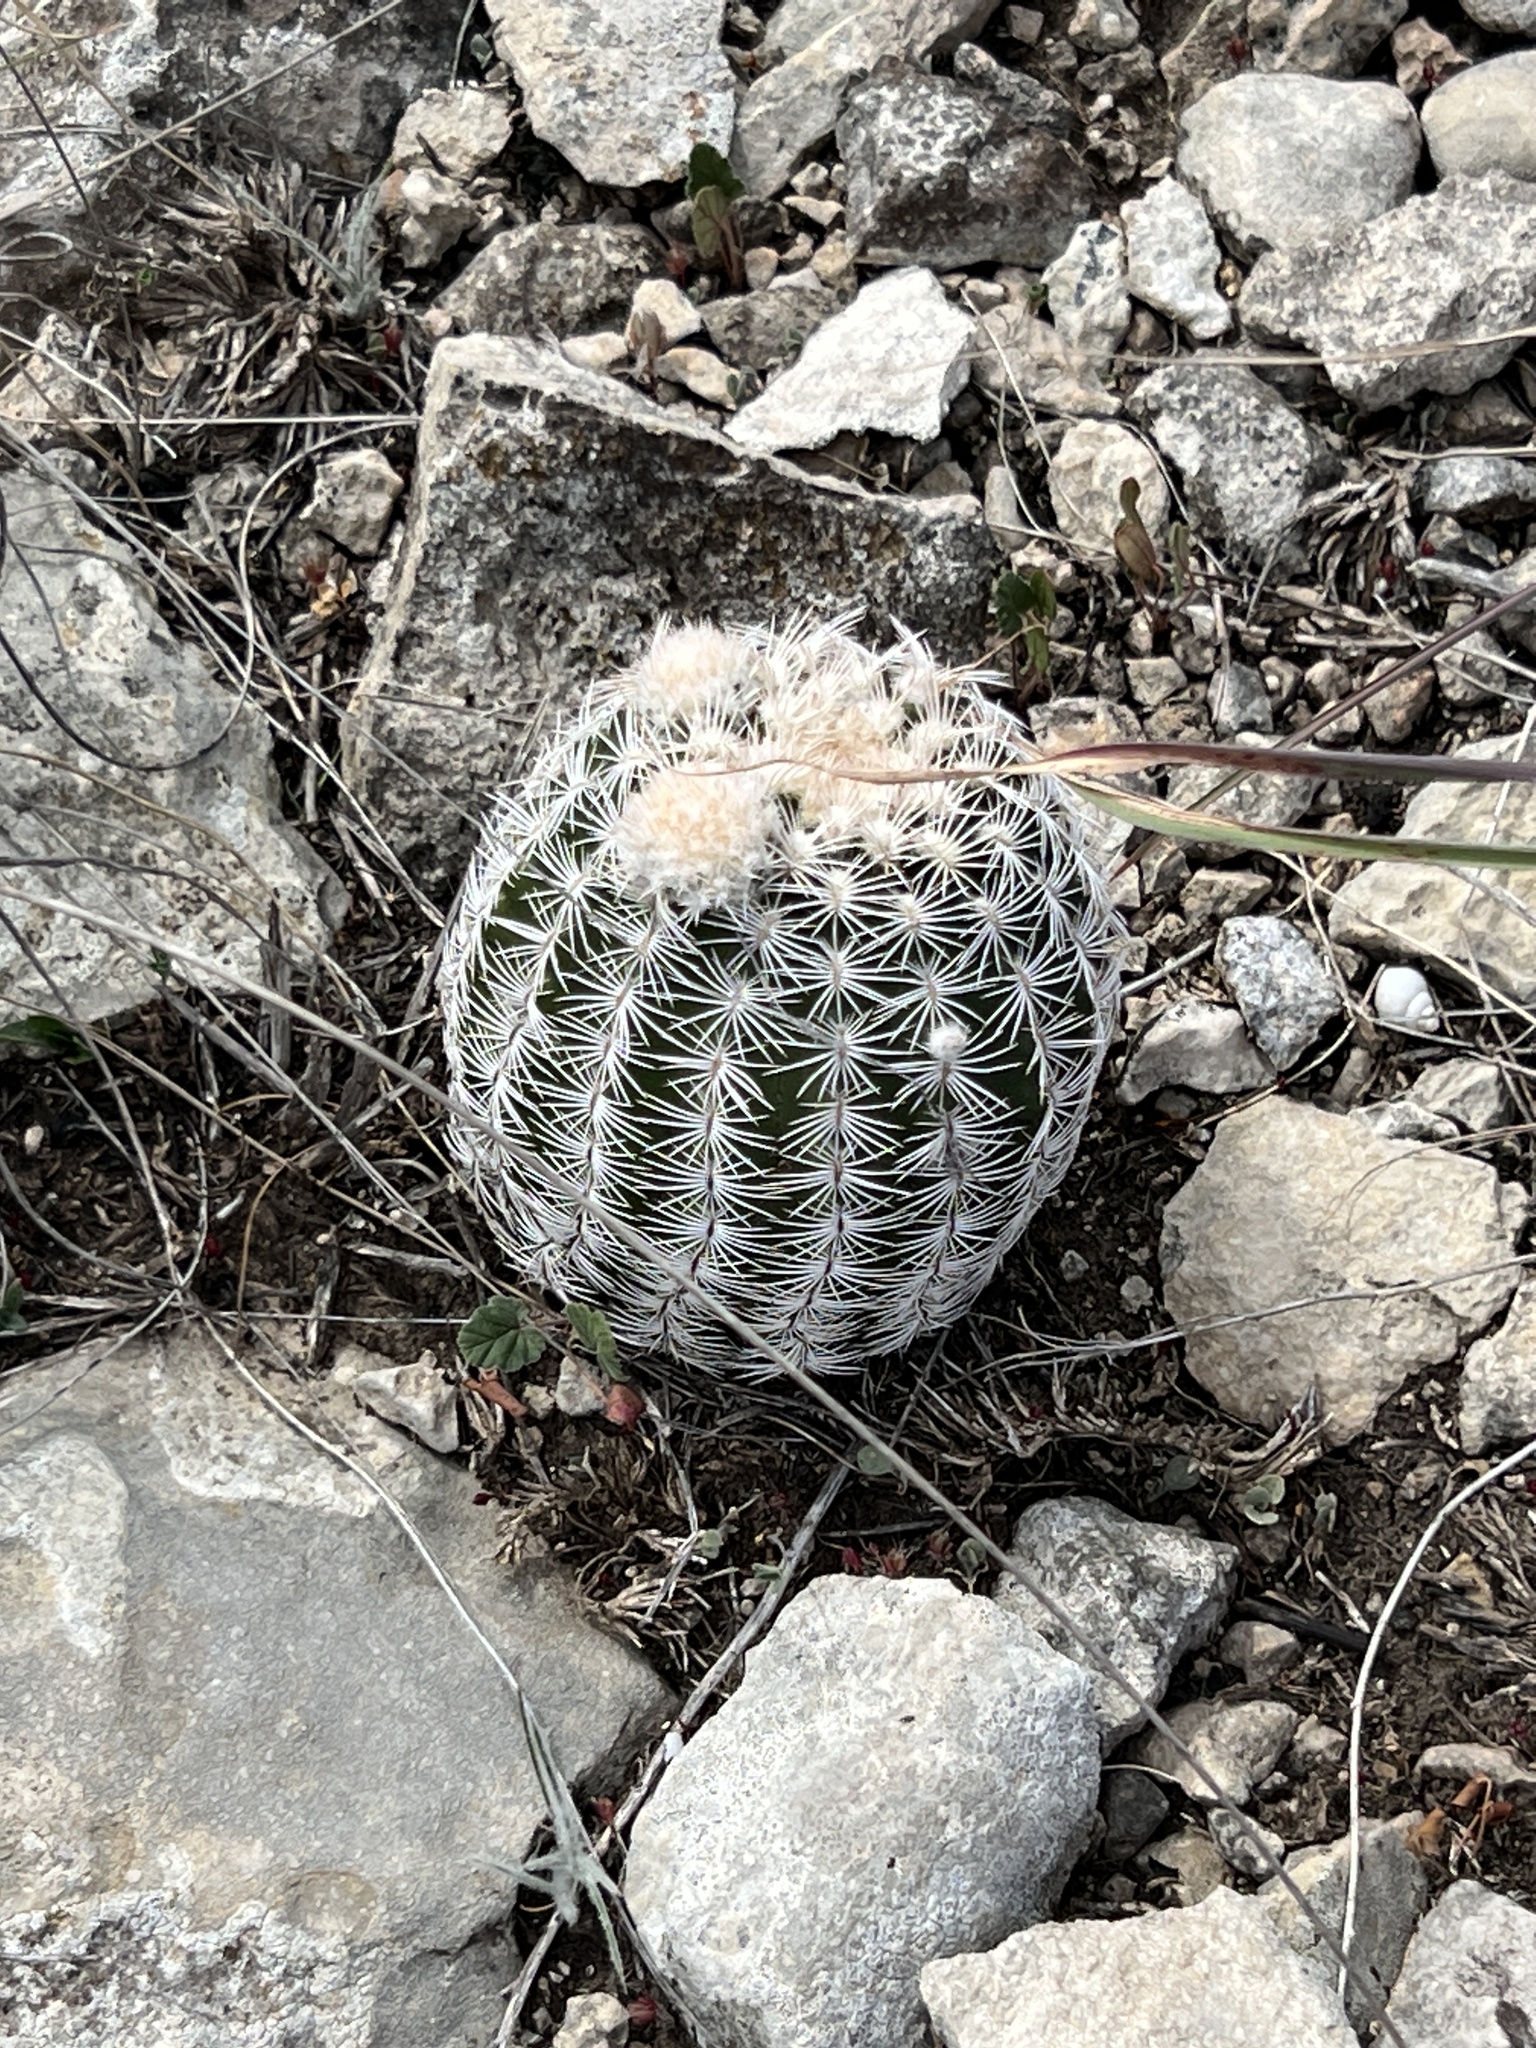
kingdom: Plantae
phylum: Tracheophyta
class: Magnoliopsida
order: Caryophyllales
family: Cactaceae
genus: Echinocereus
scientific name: Echinocereus reichenbachii
